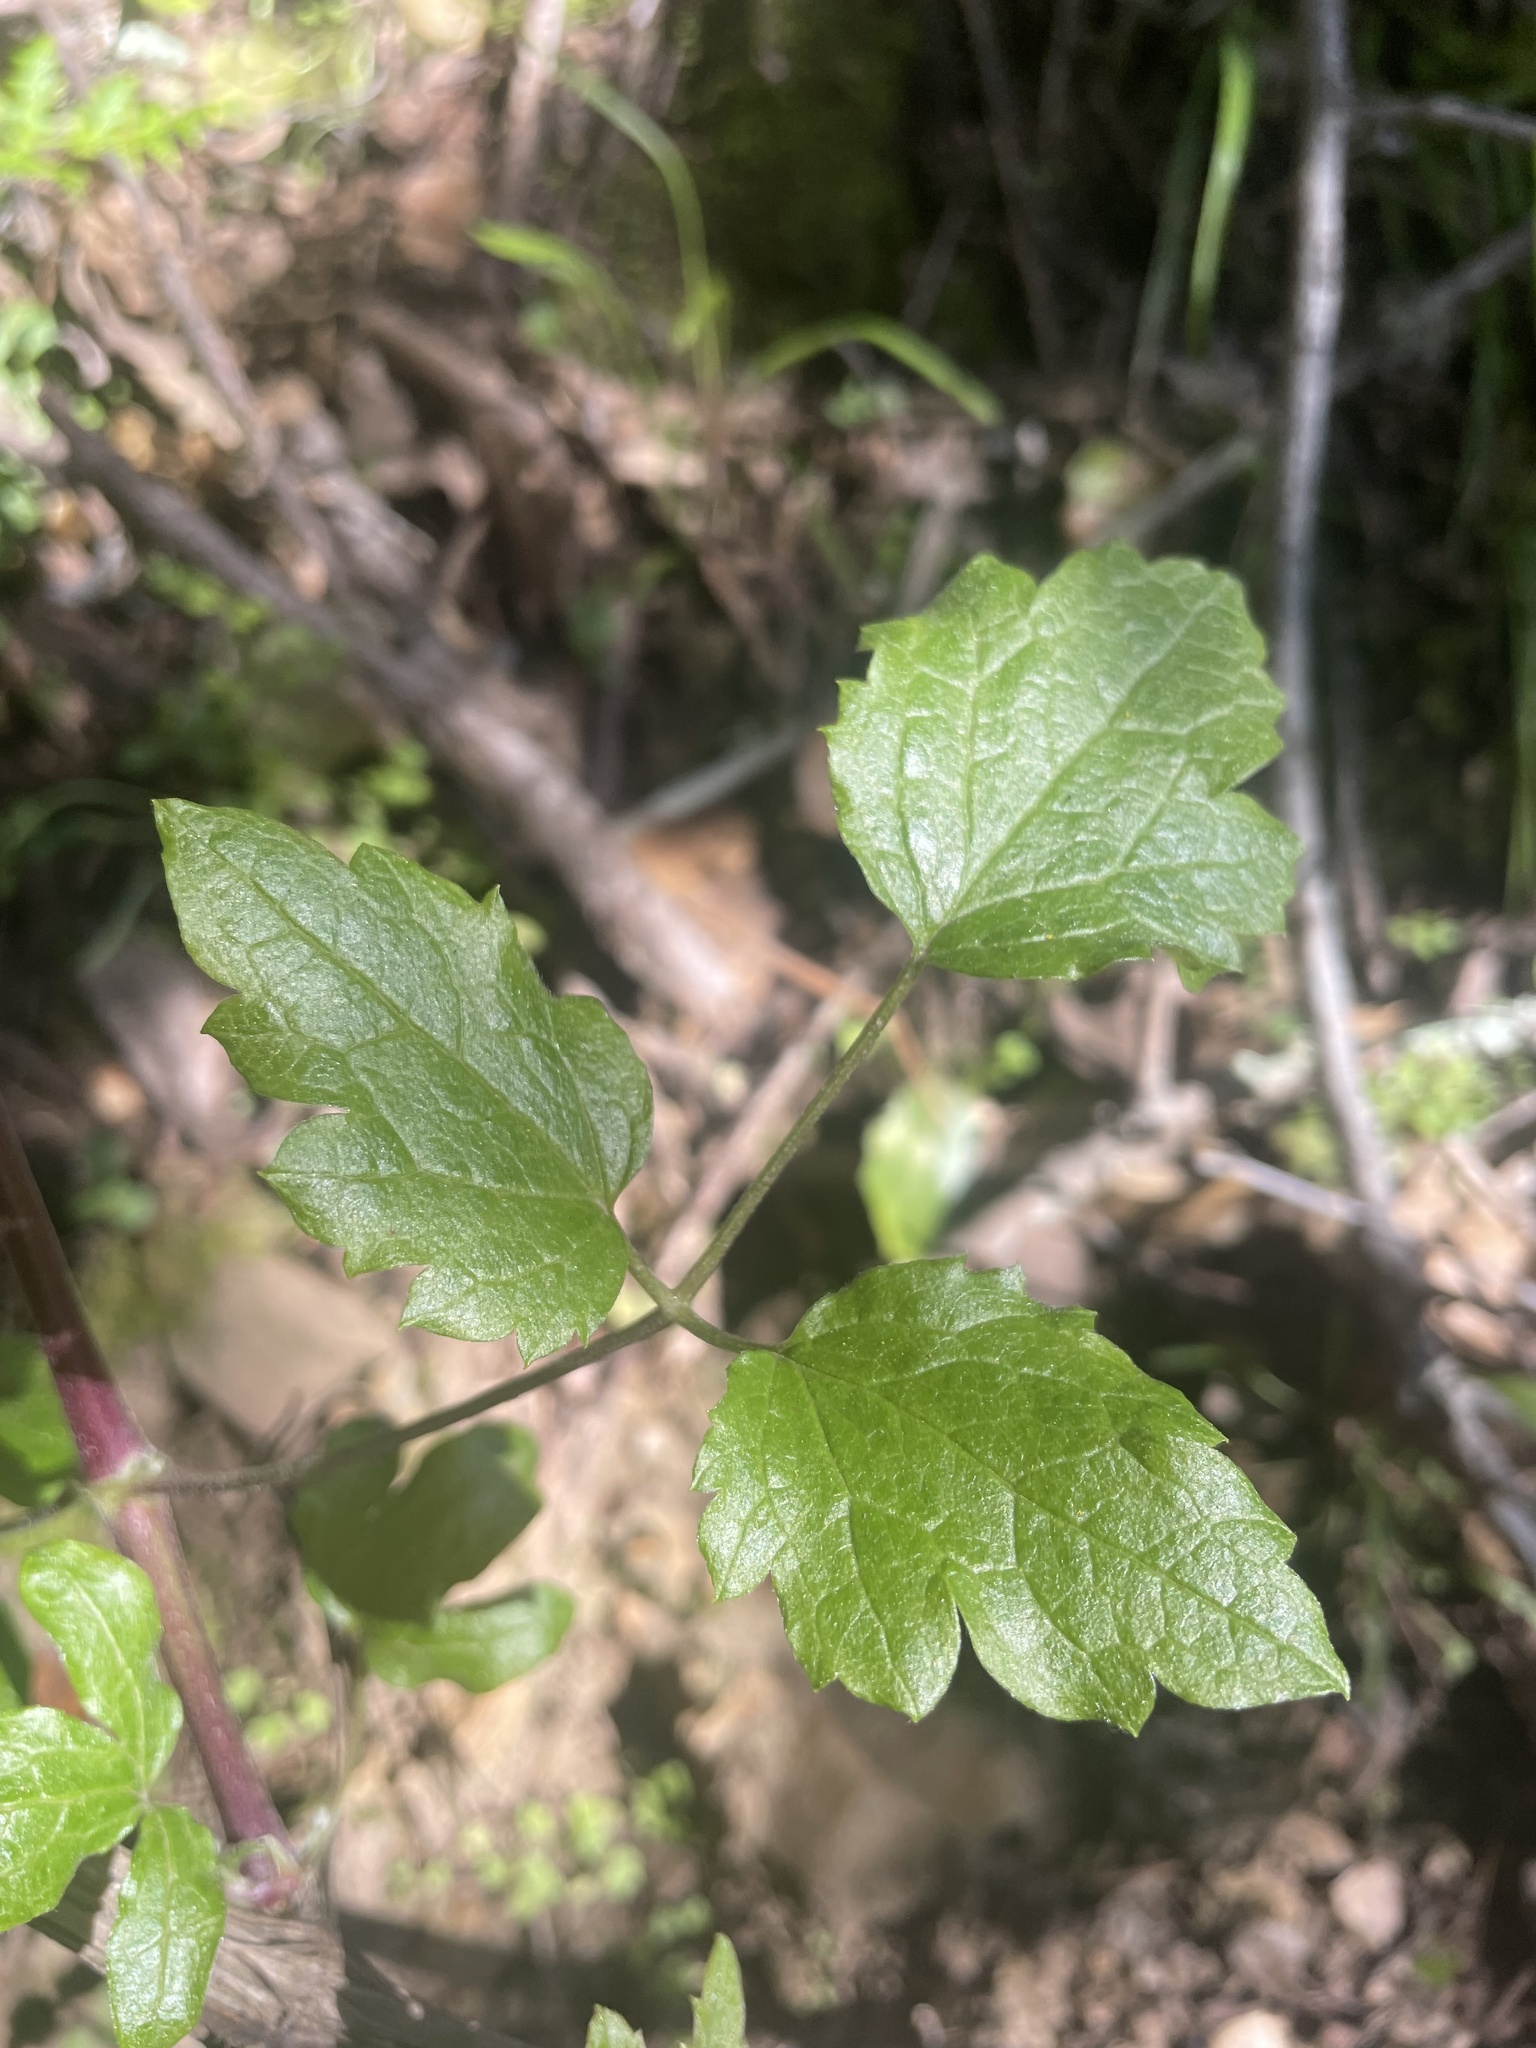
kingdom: Plantae
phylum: Tracheophyta
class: Magnoliopsida
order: Ranunculales
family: Ranunculaceae
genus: Clematis
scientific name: Clematis lasiantha
